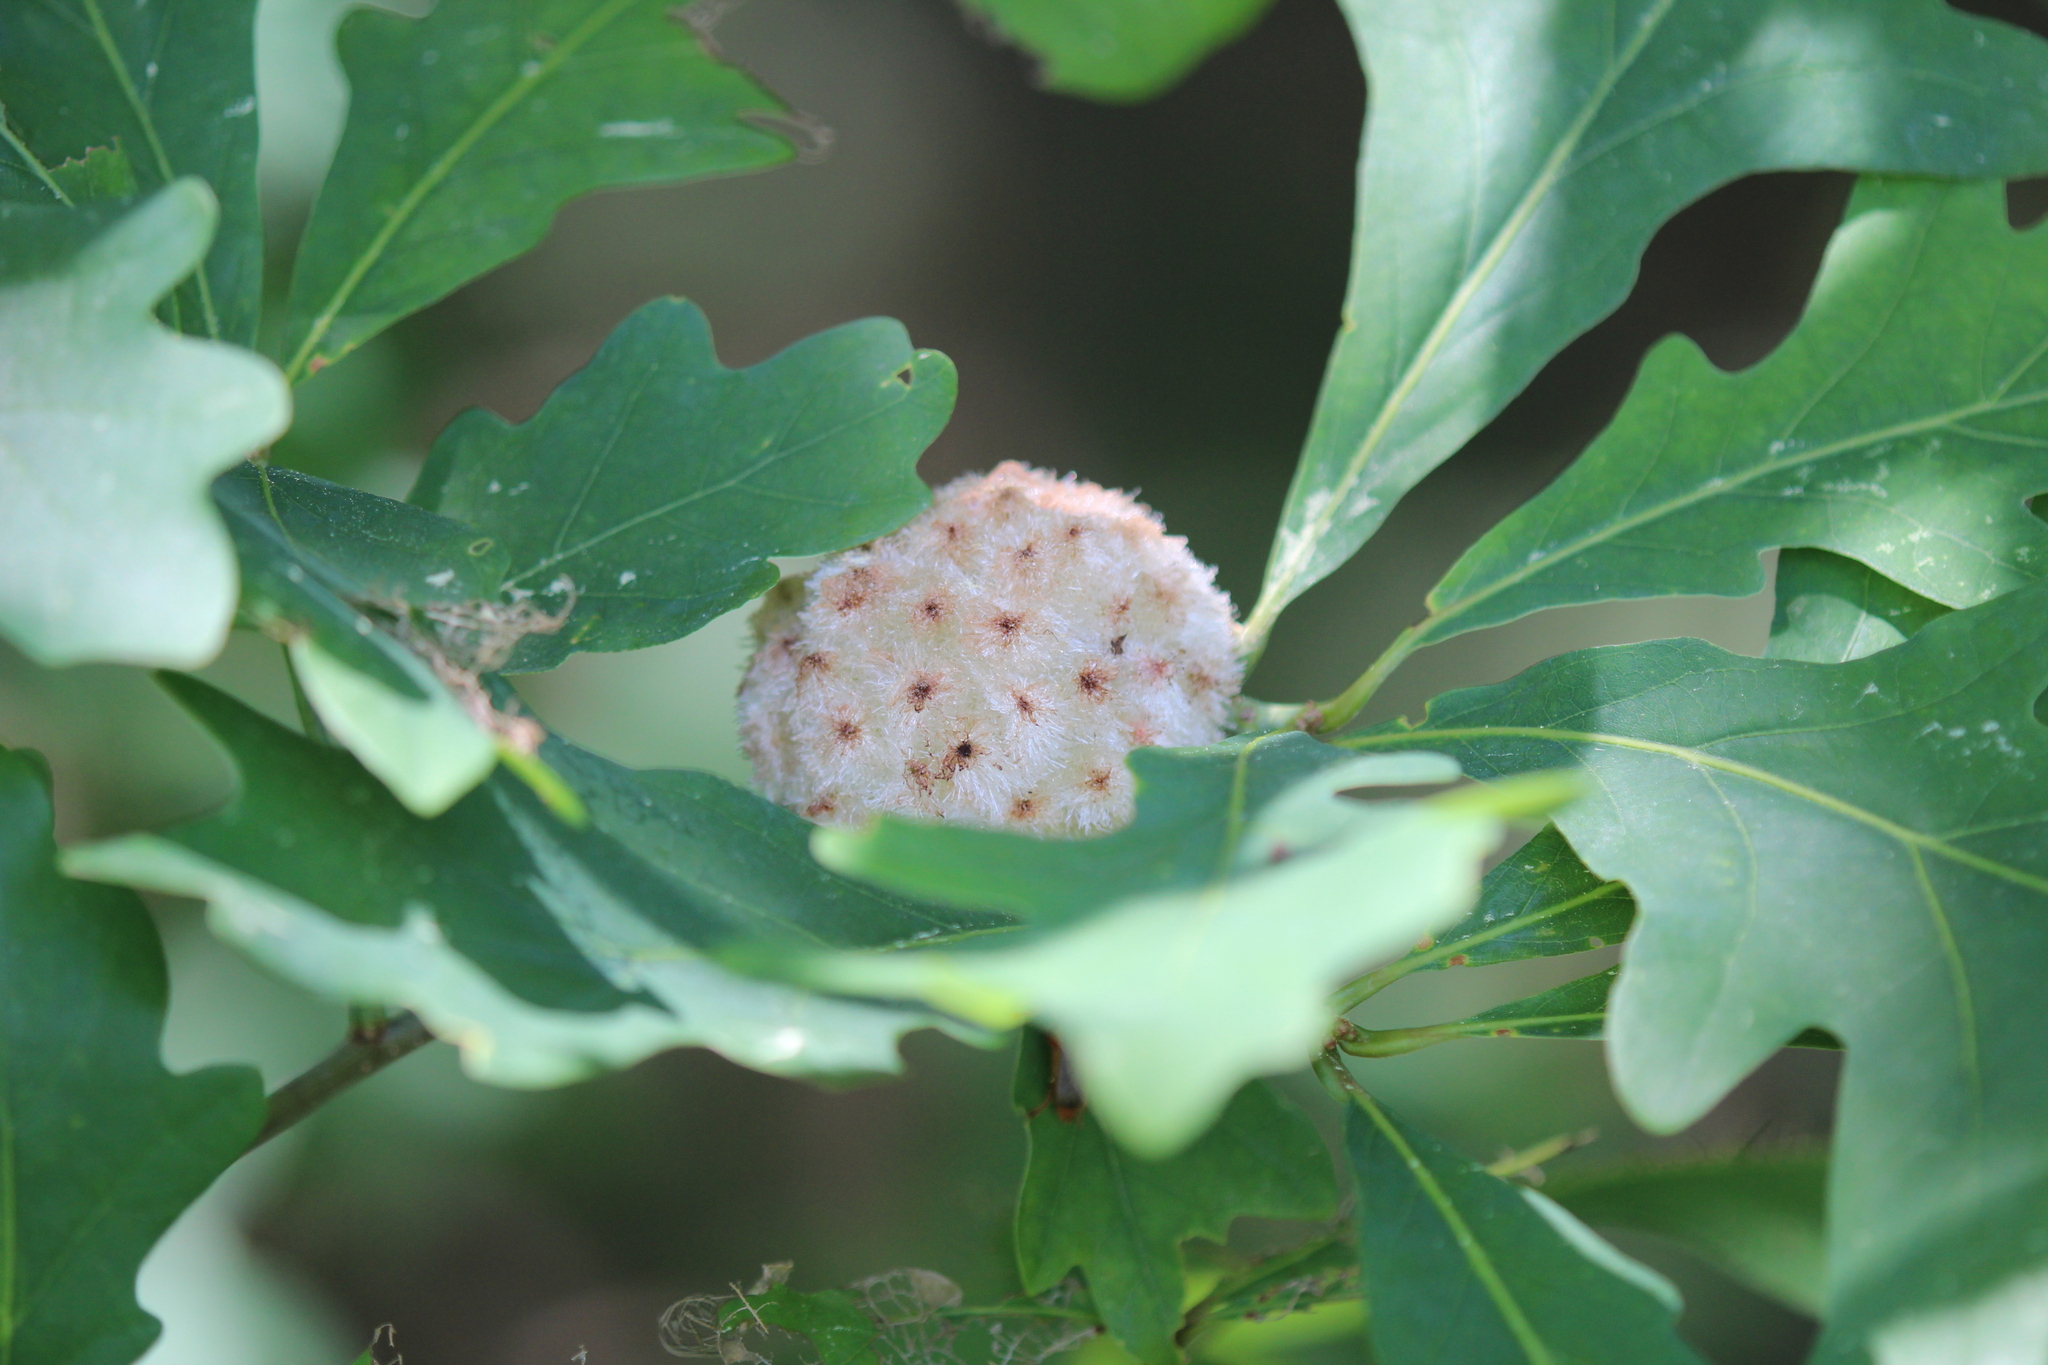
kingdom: Animalia
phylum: Arthropoda
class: Insecta
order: Hymenoptera
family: Cynipidae
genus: Callirhytis
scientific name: Callirhytis
